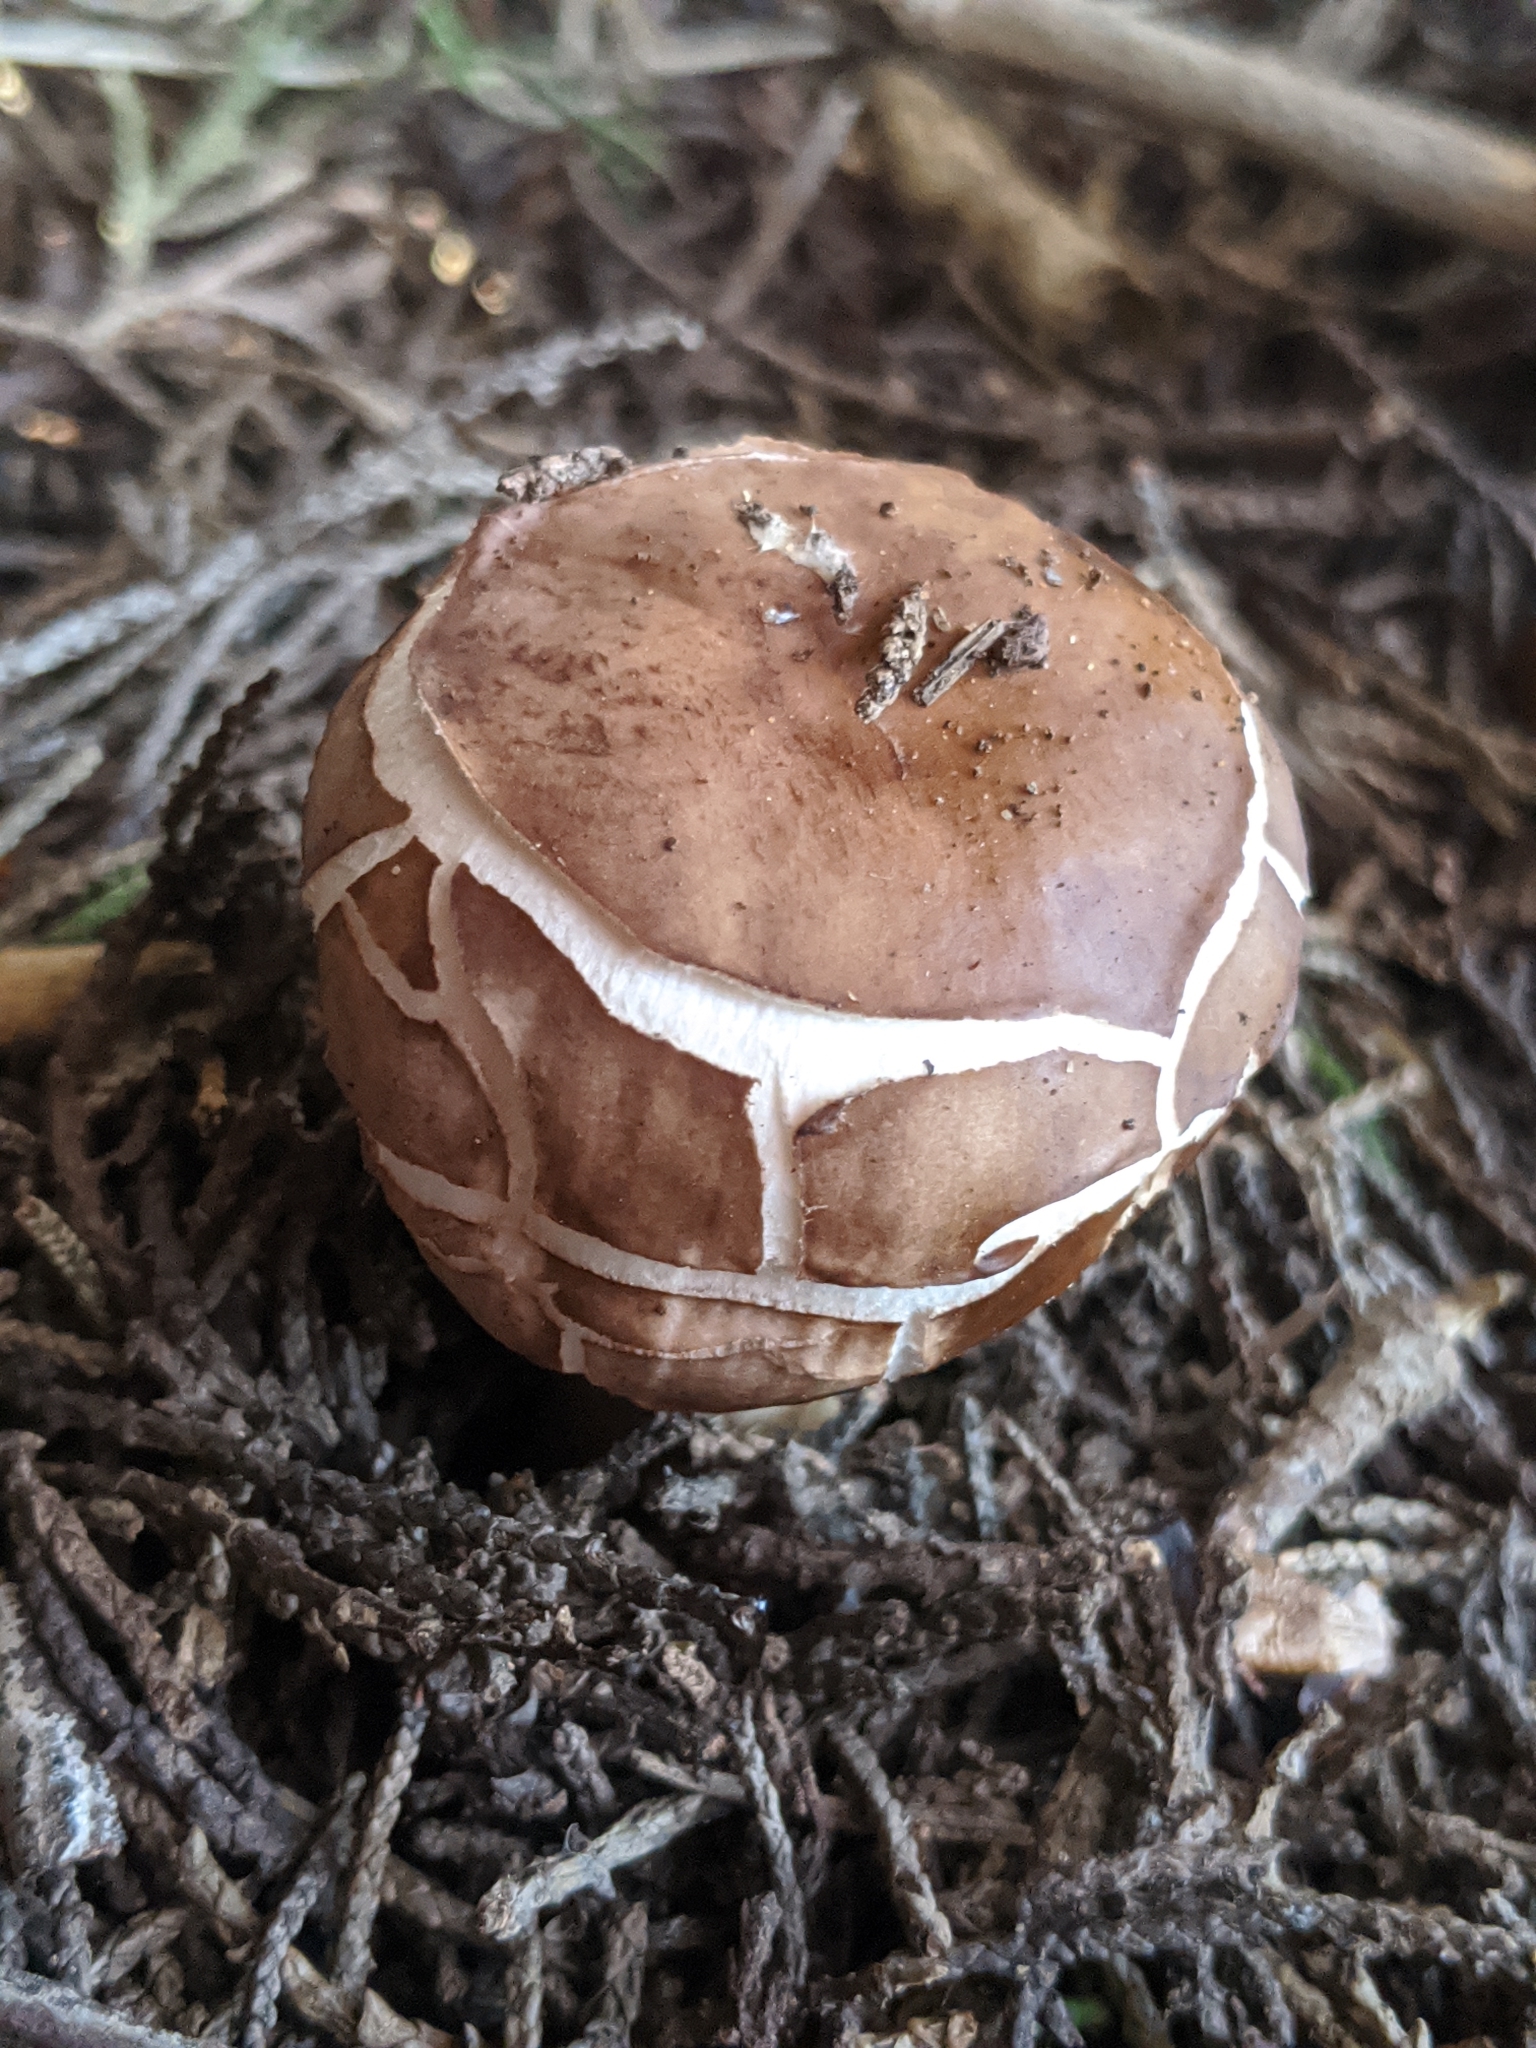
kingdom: Fungi
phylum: Basidiomycota
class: Agaricomycetes
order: Agaricales
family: Agaricaceae
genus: Chlorophyllum
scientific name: Chlorophyllum brunneum
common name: Brown parasol
